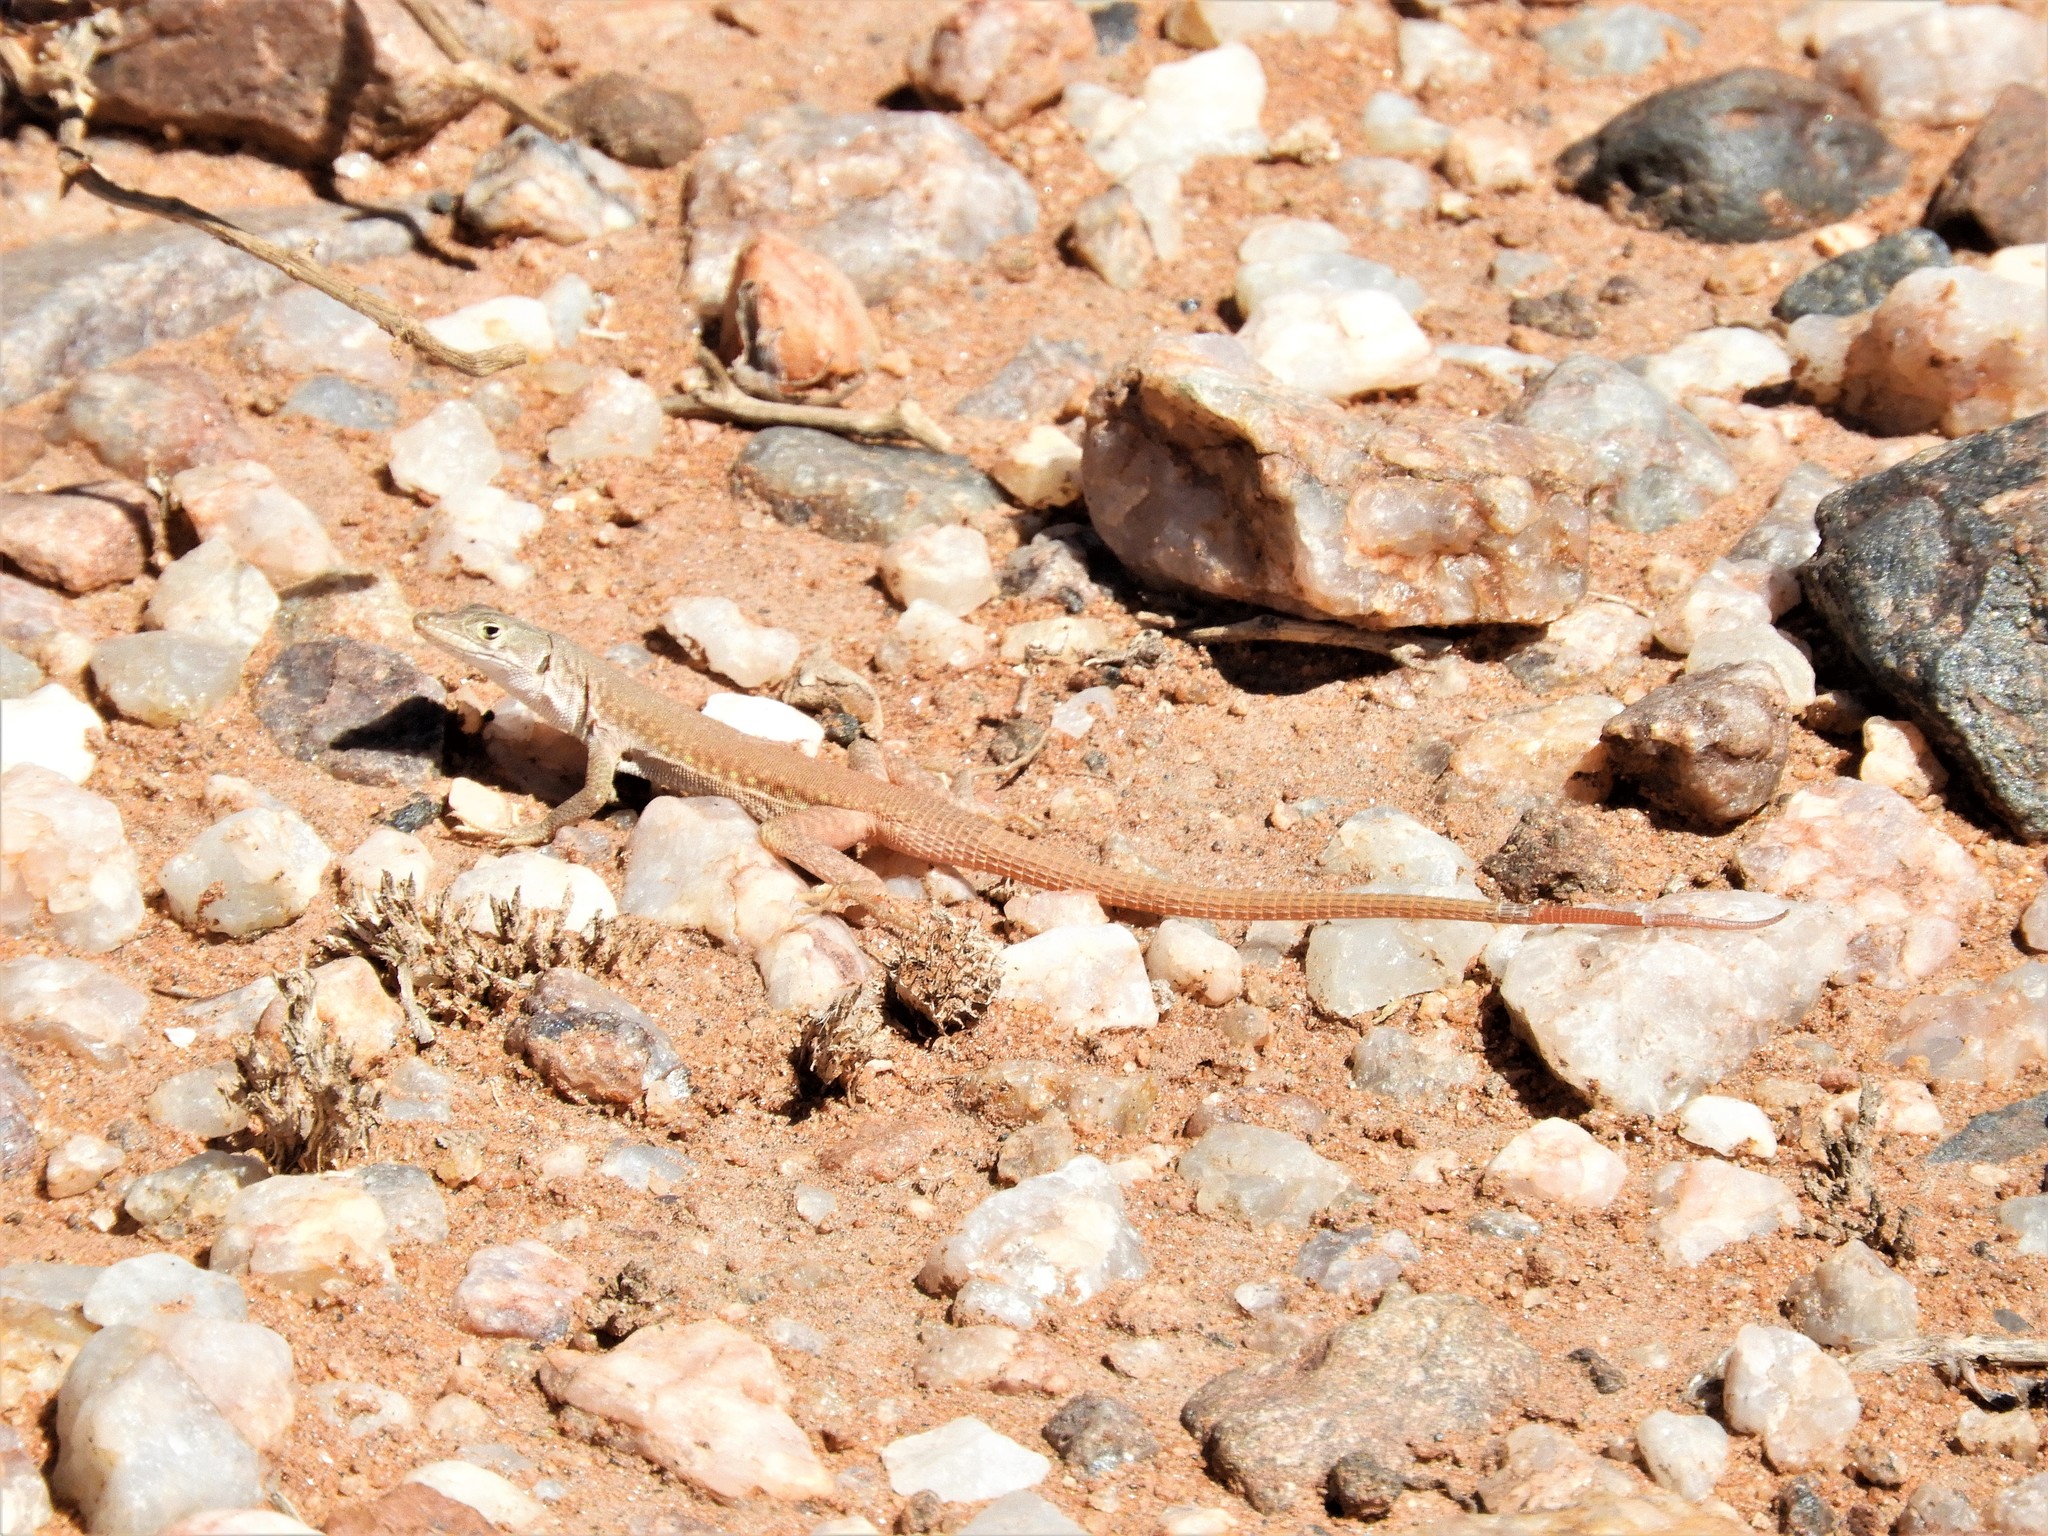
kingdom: Animalia
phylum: Chordata
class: Squamata
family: Lacertidae
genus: Pedioplanis
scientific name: Pedioplanis inornata
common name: Plain sand lizard
